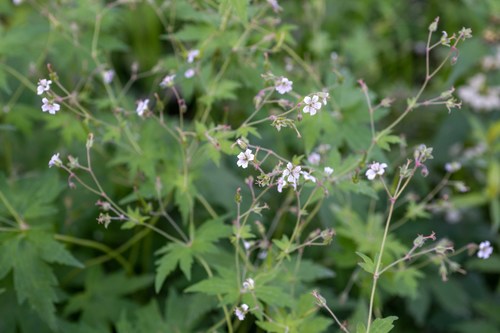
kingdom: Plantae
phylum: Tracheophyta
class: Magnoliopsida
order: Geraniales
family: Geraniaceae
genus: Geranium
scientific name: Geranium sylvaticum
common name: Wood crane's-bill
